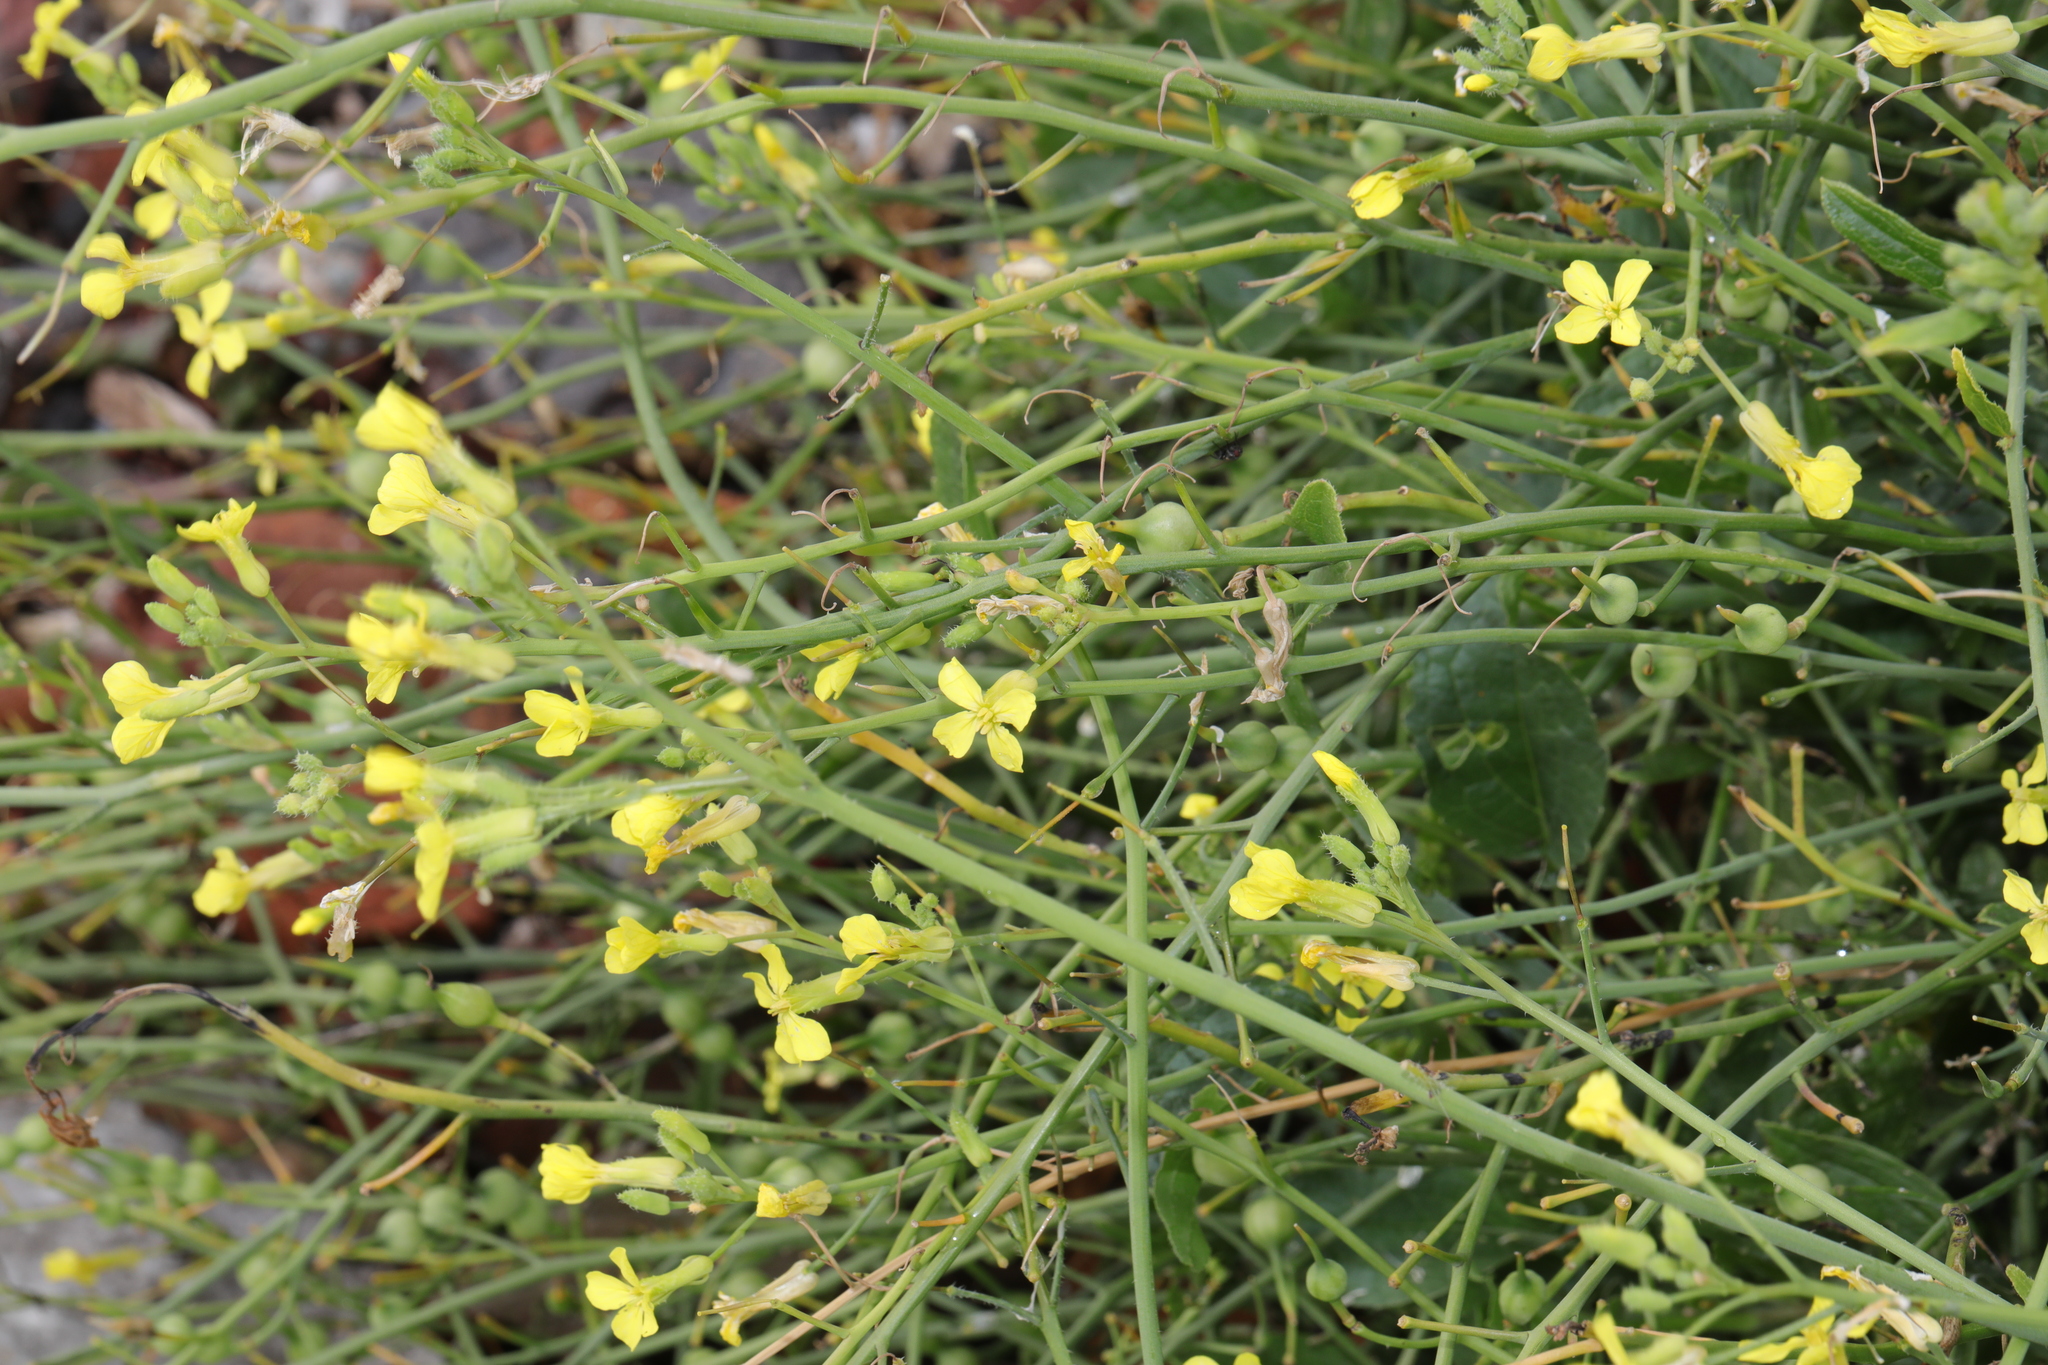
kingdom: Plantae
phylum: Tracheophyta
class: Magnoliopsida
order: Brassicales
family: Brassicaceae
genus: Raphanus
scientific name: Raphanus raphanistrum
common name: Wild radish
